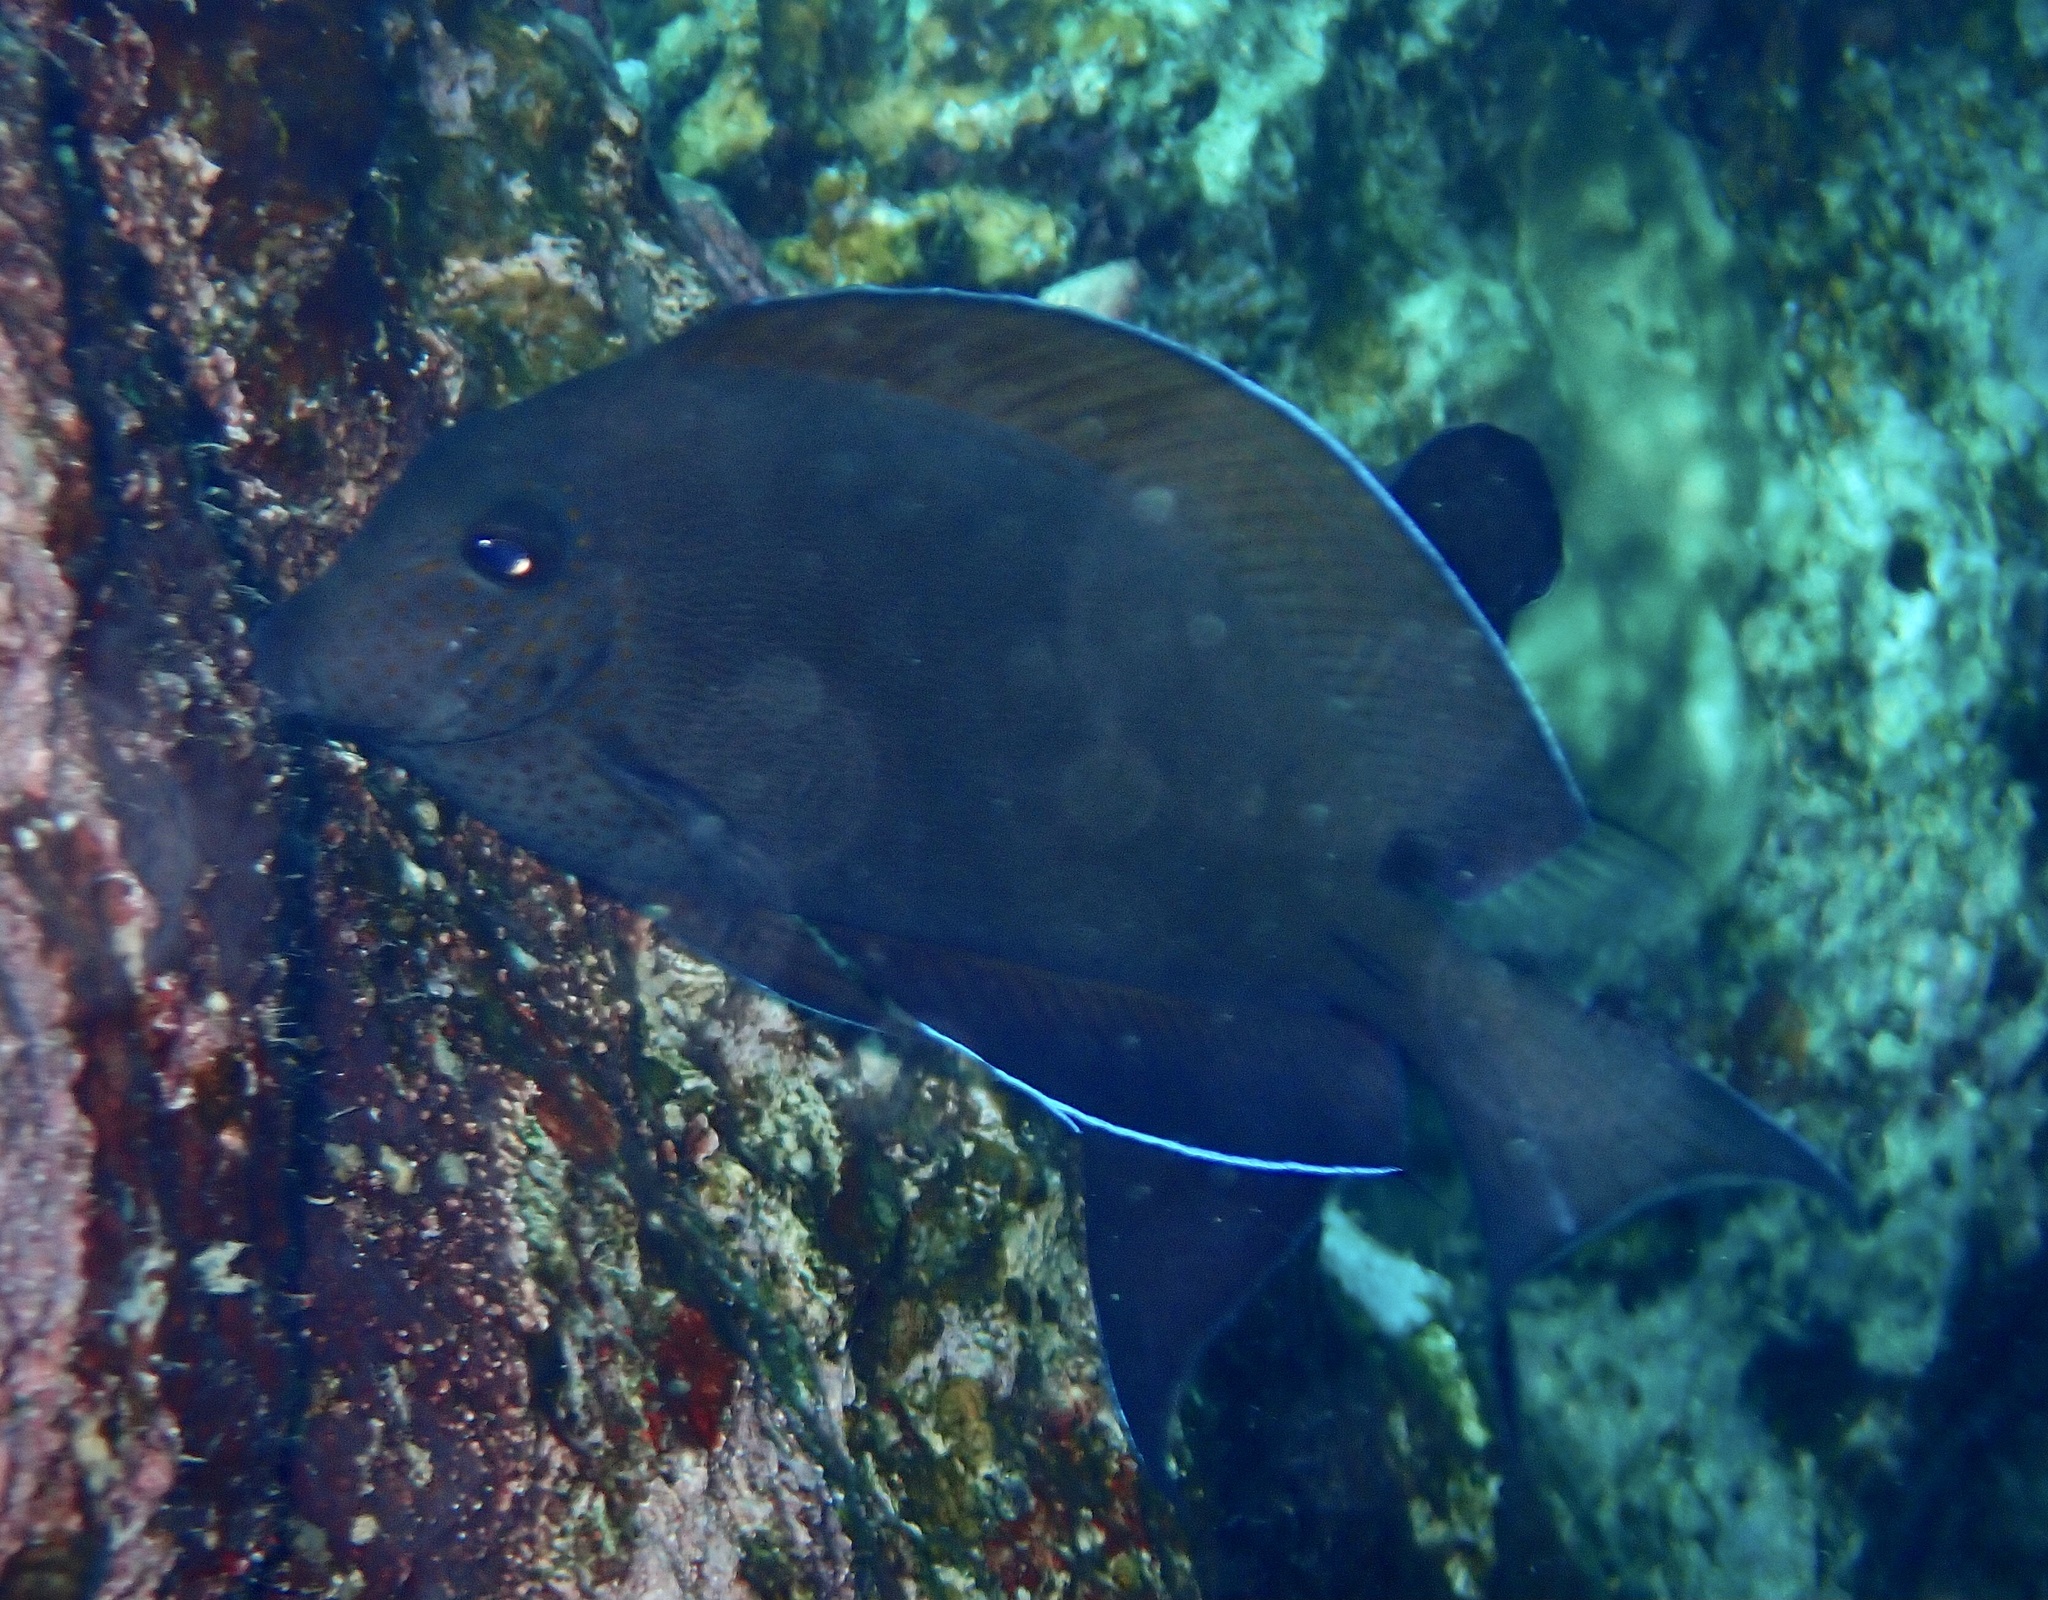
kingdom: Animalia
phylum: Chordata
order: Perciformes
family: Acanthuridae
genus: Acanthurus
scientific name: Acanthurus nigrofuscus
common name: Blackspot surgeonfish
